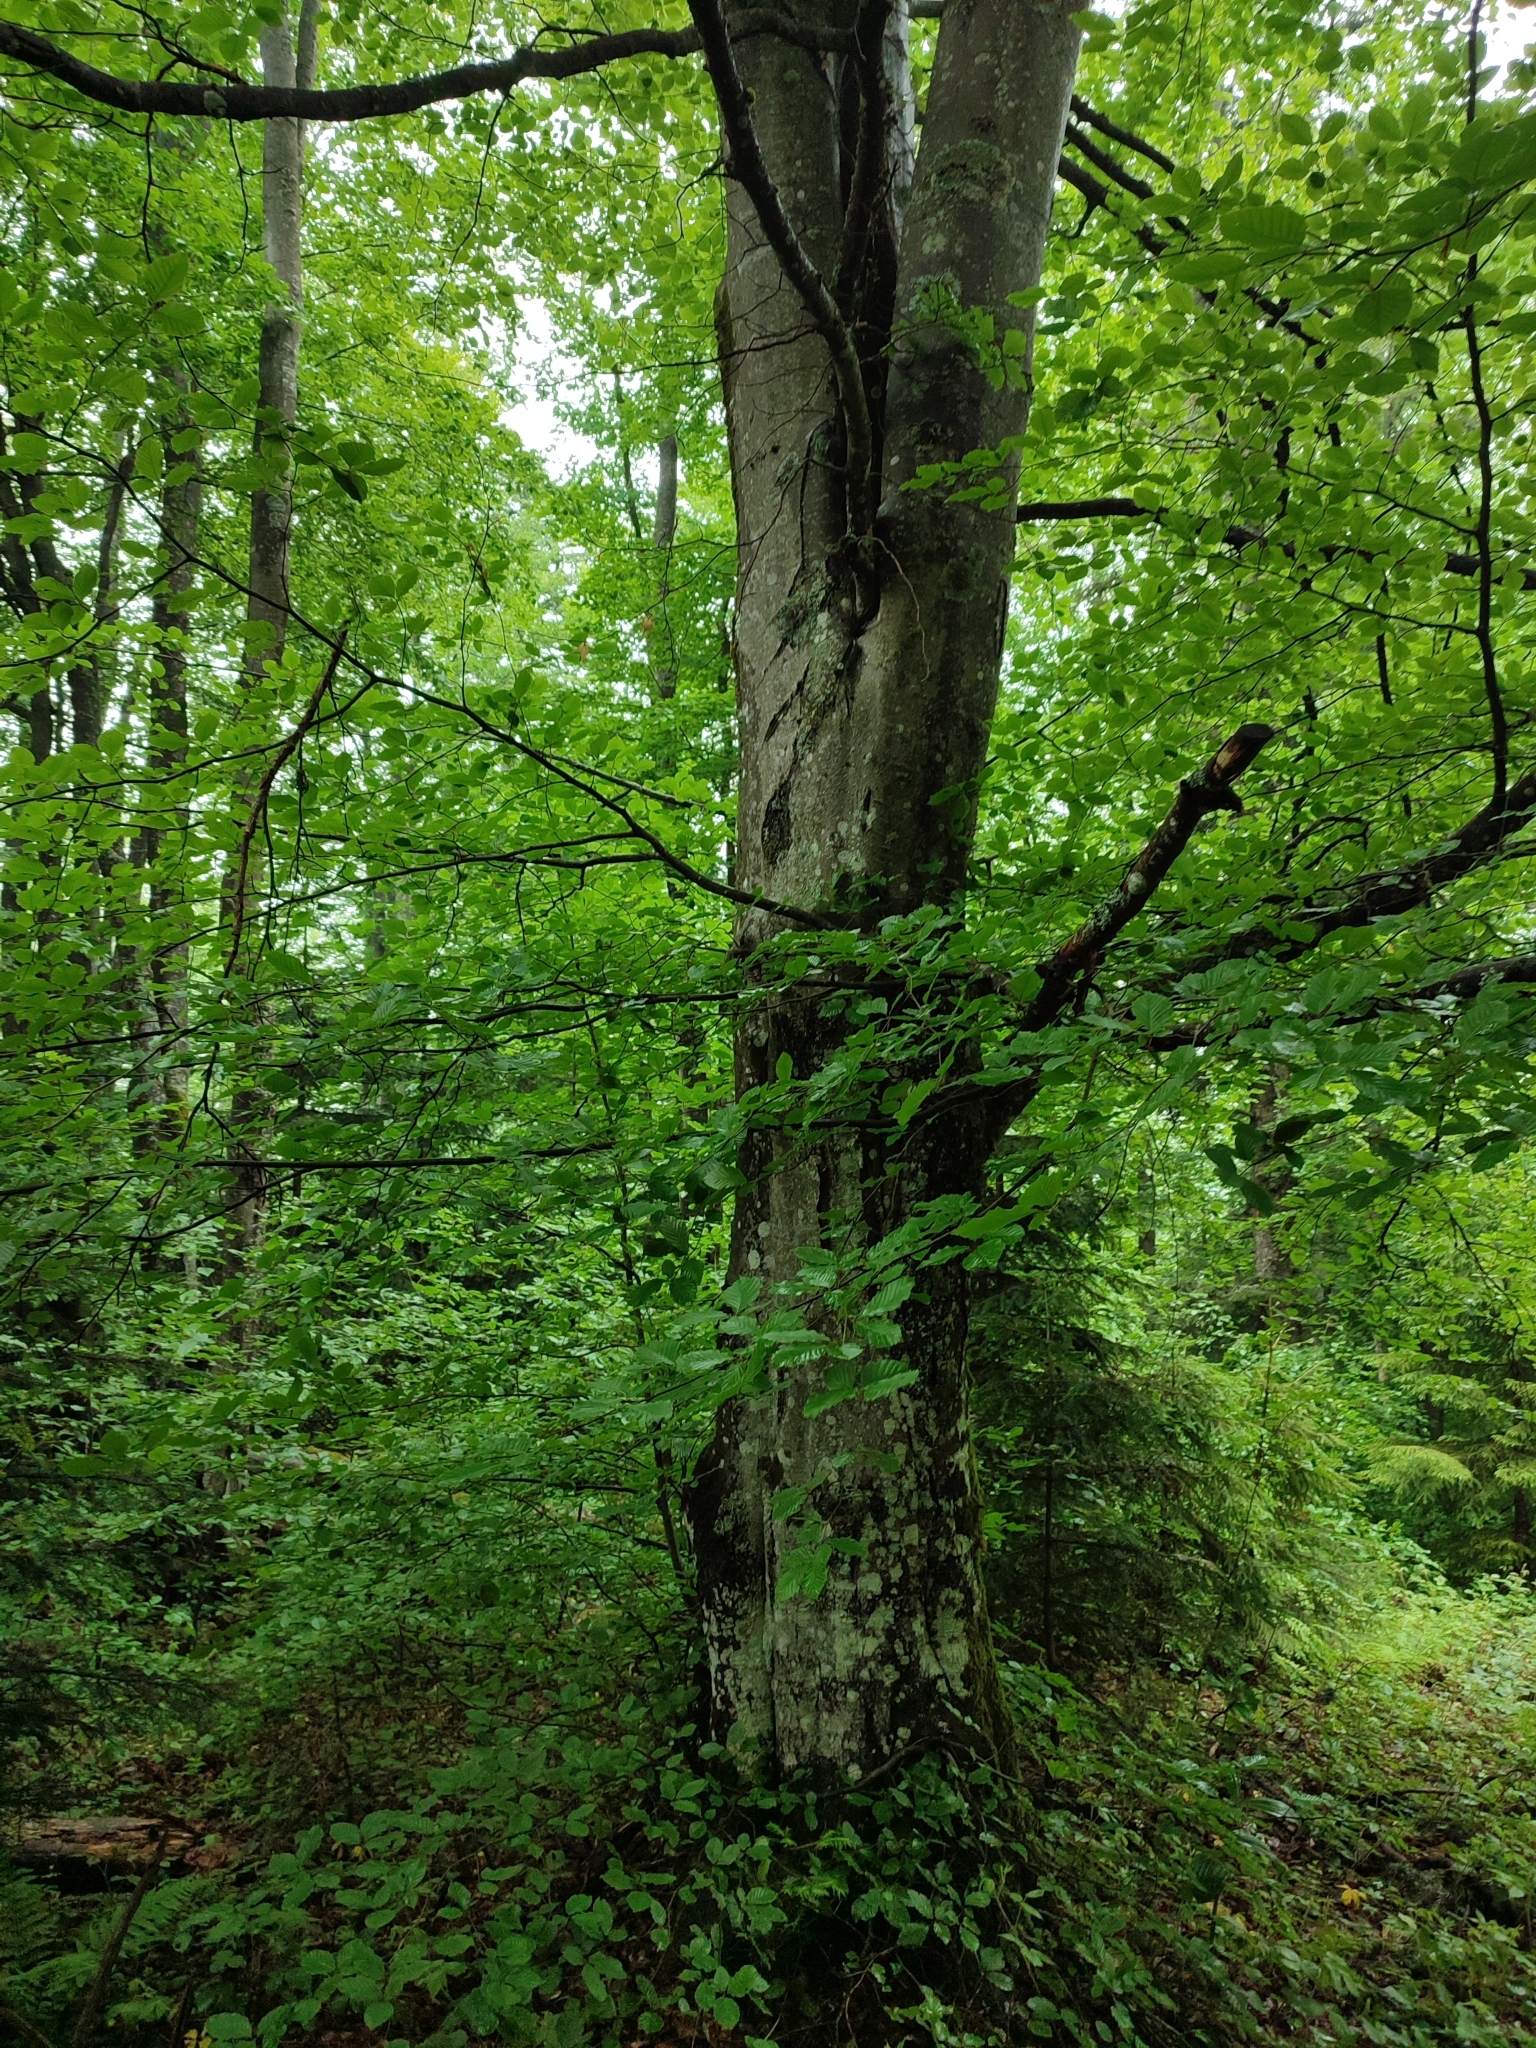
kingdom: Plantae
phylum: Tracheophyta
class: Magnoliopsida
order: Fagales
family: Fagaceae
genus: Fagus
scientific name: Fagus sylvatica
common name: Beech
